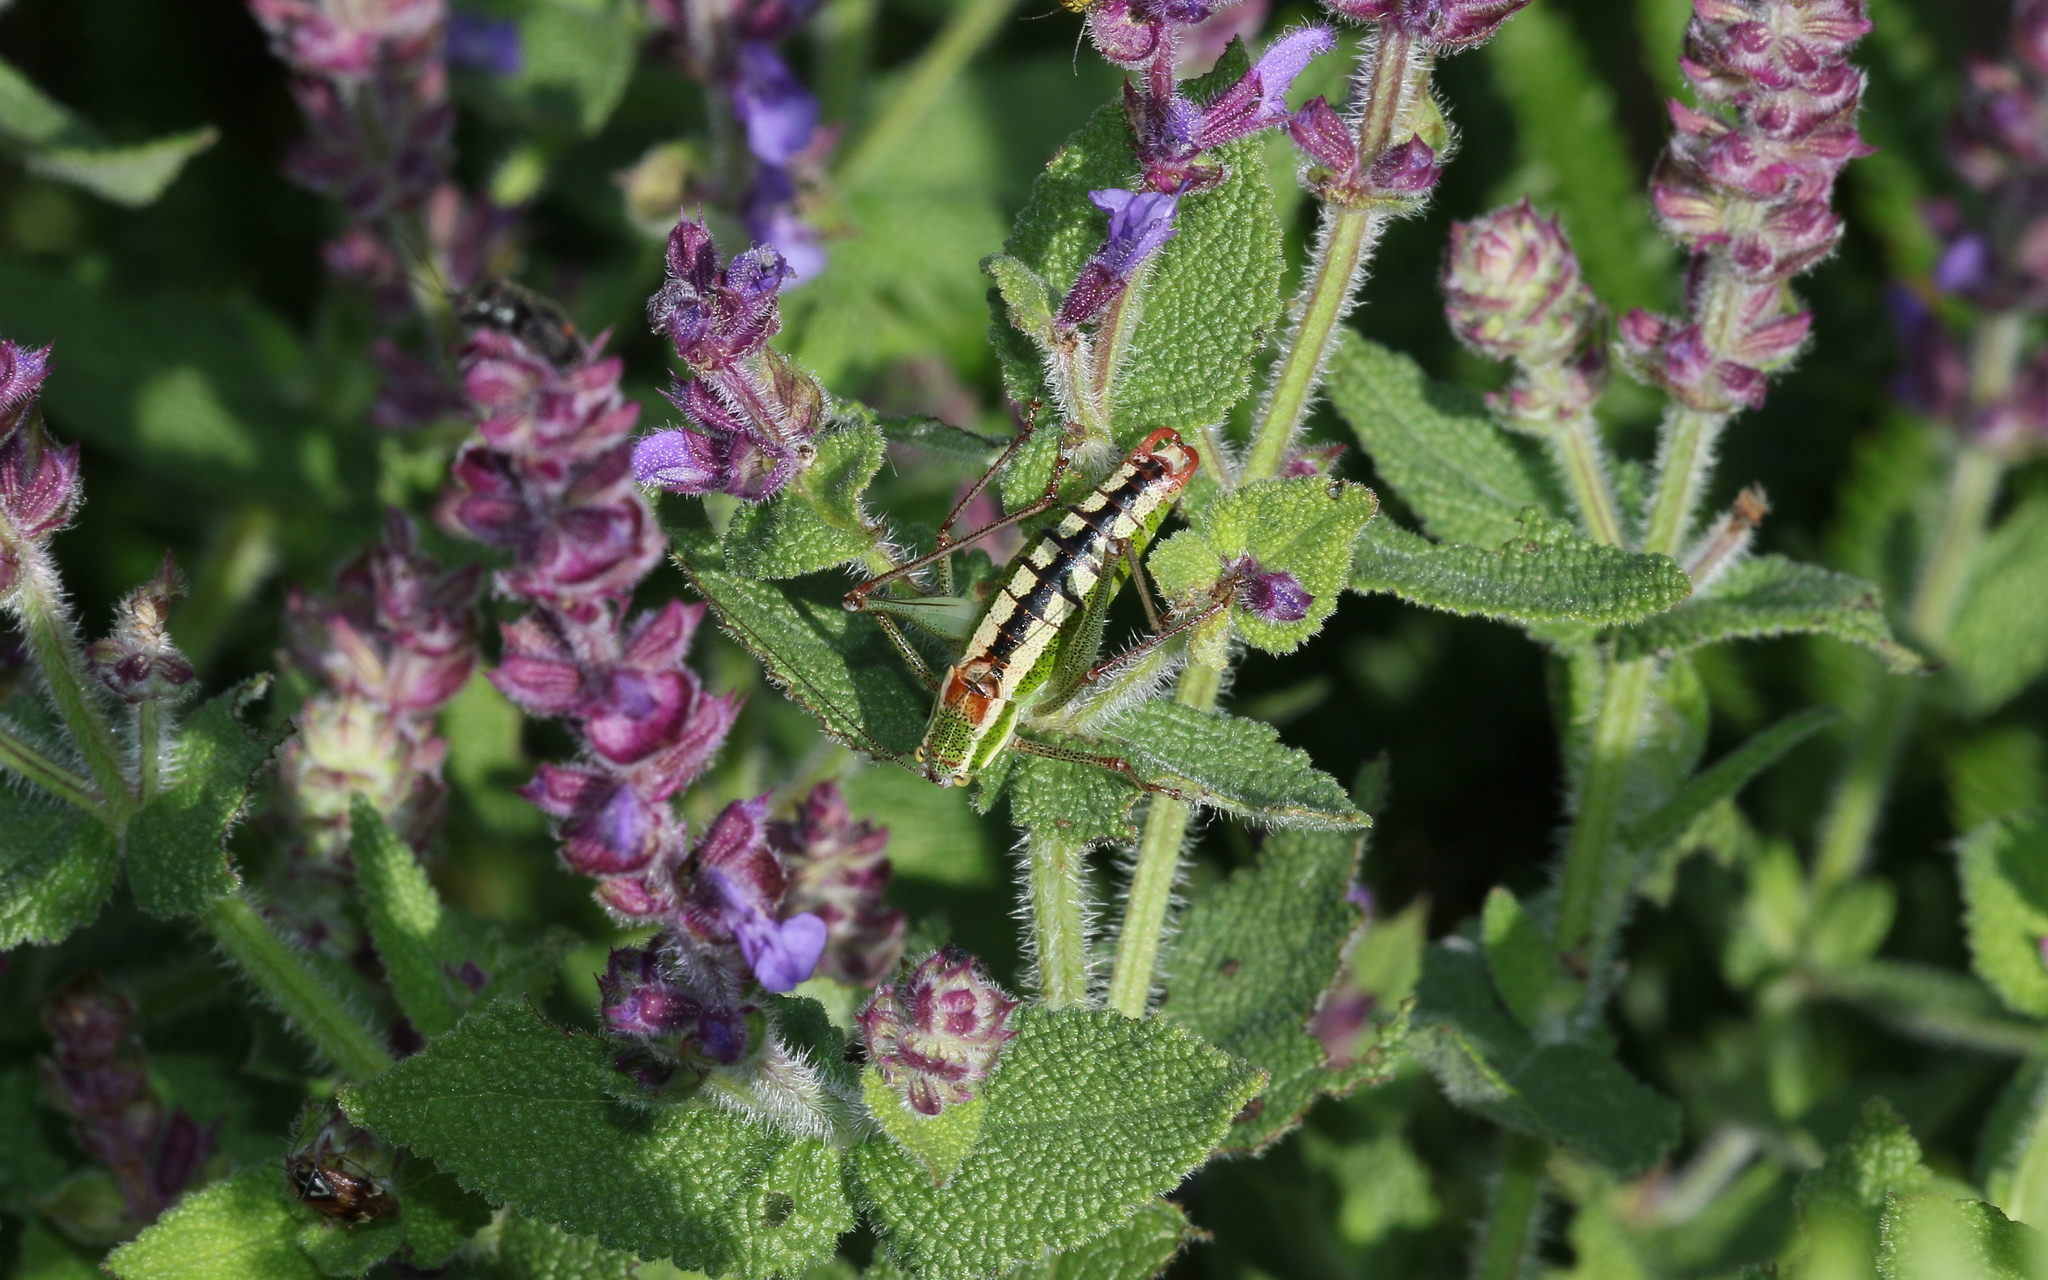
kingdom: Animalia
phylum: Arthropoda
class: Insecta
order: Orthoptera
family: Tettigoniidae
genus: Poecilimon
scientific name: Poecilimon macedonicus
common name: Macedonian bright bush-cricket
